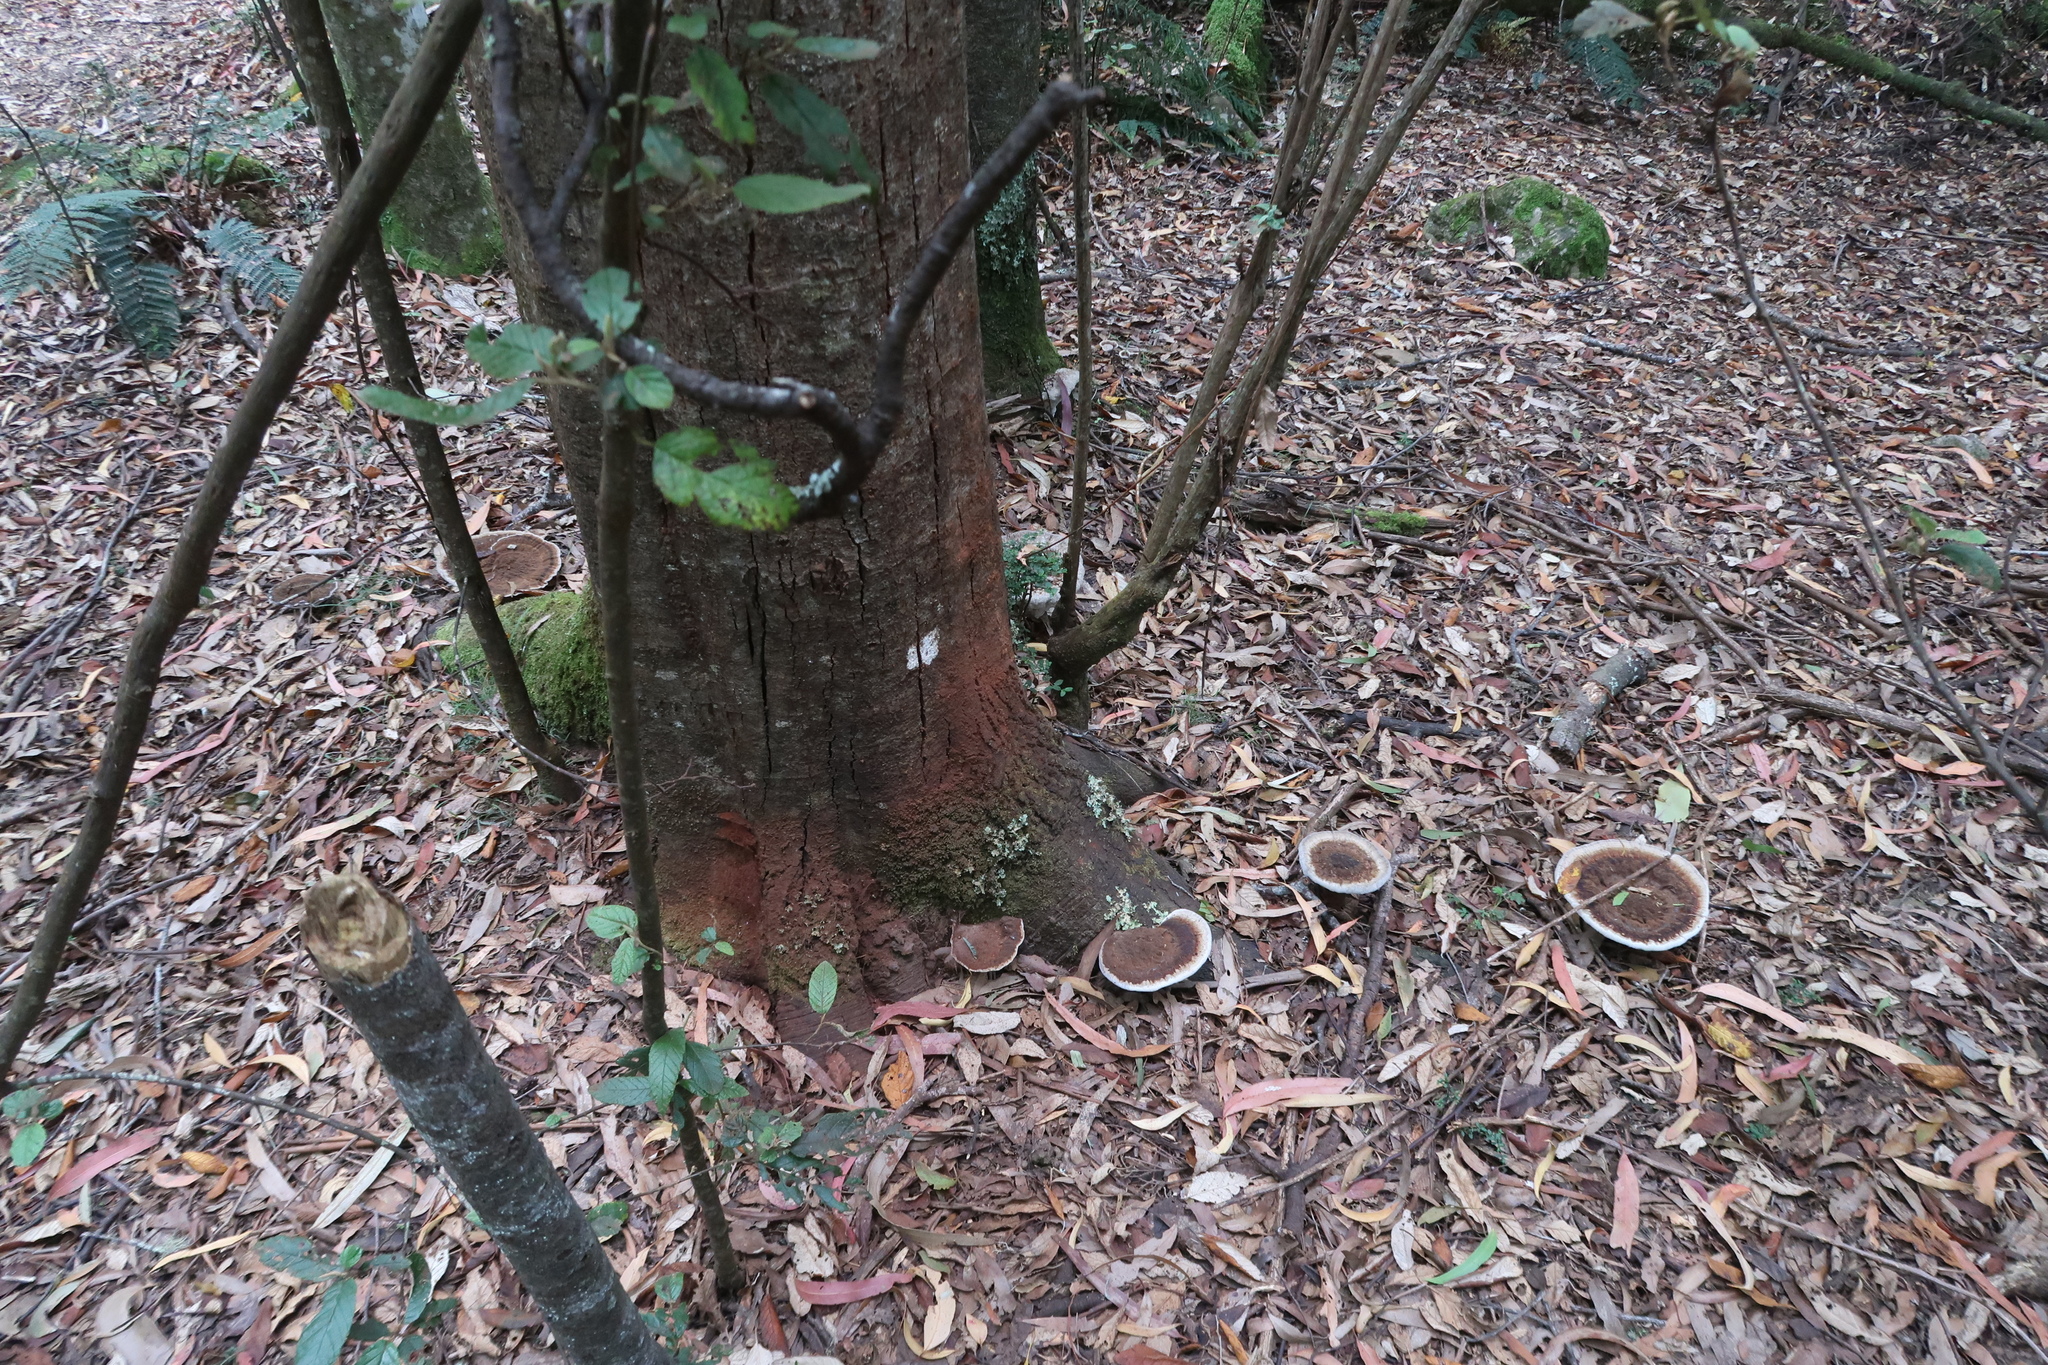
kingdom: Fungi
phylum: Basidiomycota
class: Agaricomycetes
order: Polyporales
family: Ganodermataceae
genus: Sanguinoderma
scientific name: Sanguinoderma rude
